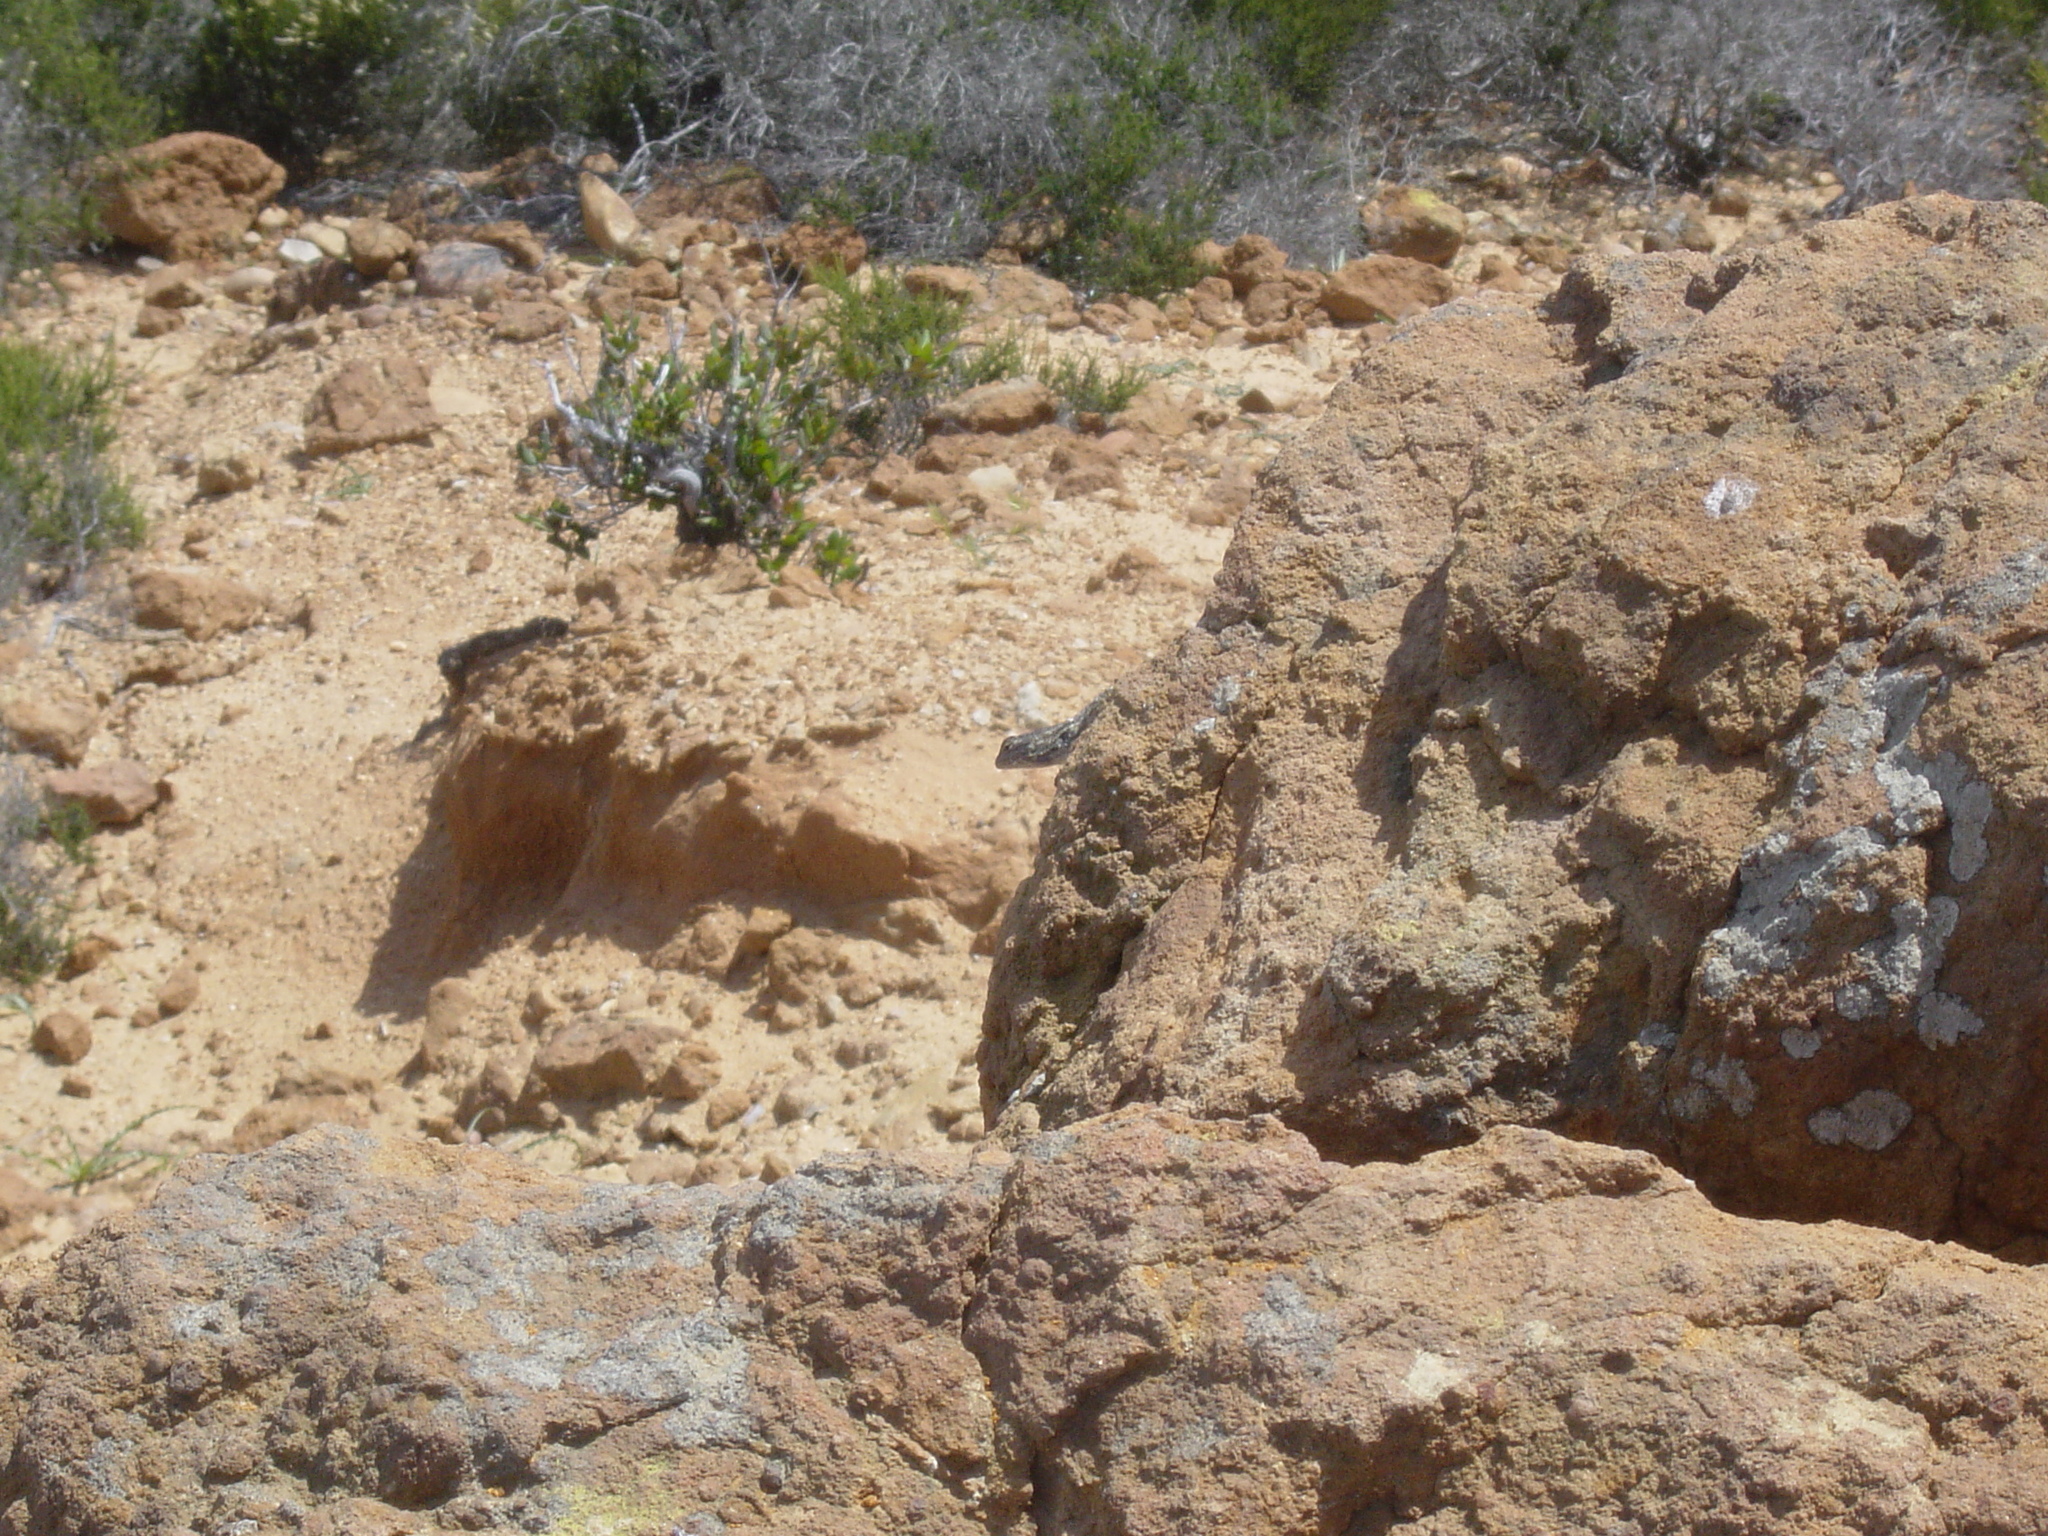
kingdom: Animalia
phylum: Chordata
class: Squamata
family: Phrynosomatidae
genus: Sceloporus
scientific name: Sceloporus occidentalis
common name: Western fence lizard
